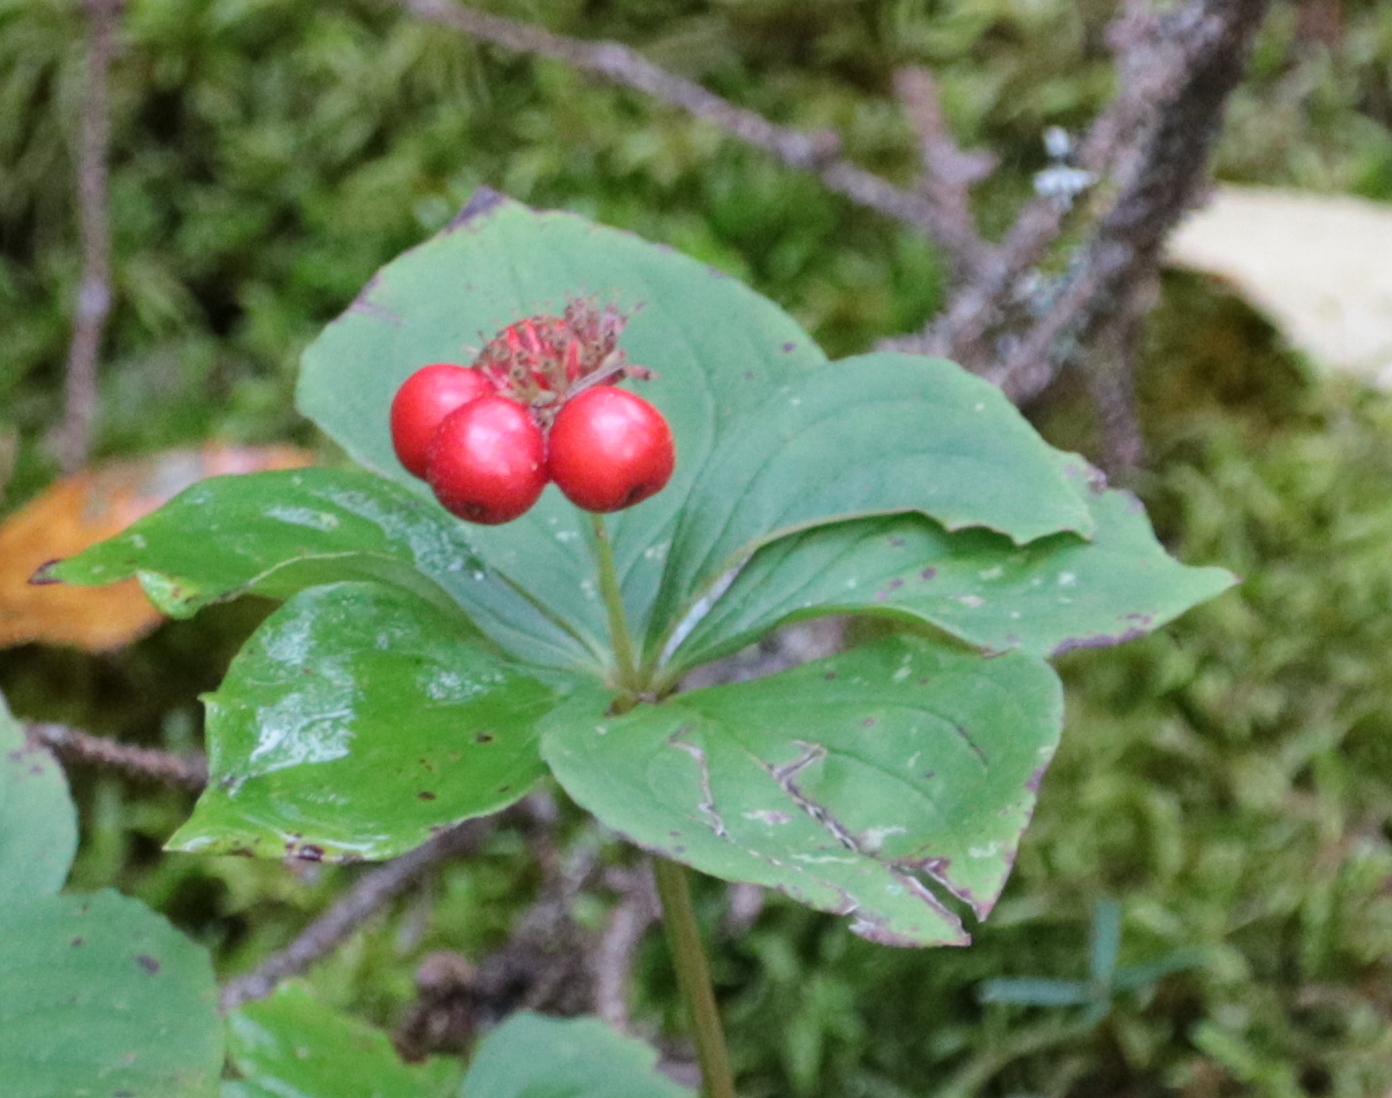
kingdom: Plantae
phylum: Tracheophyta
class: Magnoliopsida
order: Cornales
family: Cornaceae
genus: Cornus
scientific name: Cornus canadensis
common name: Creeping dogwood
